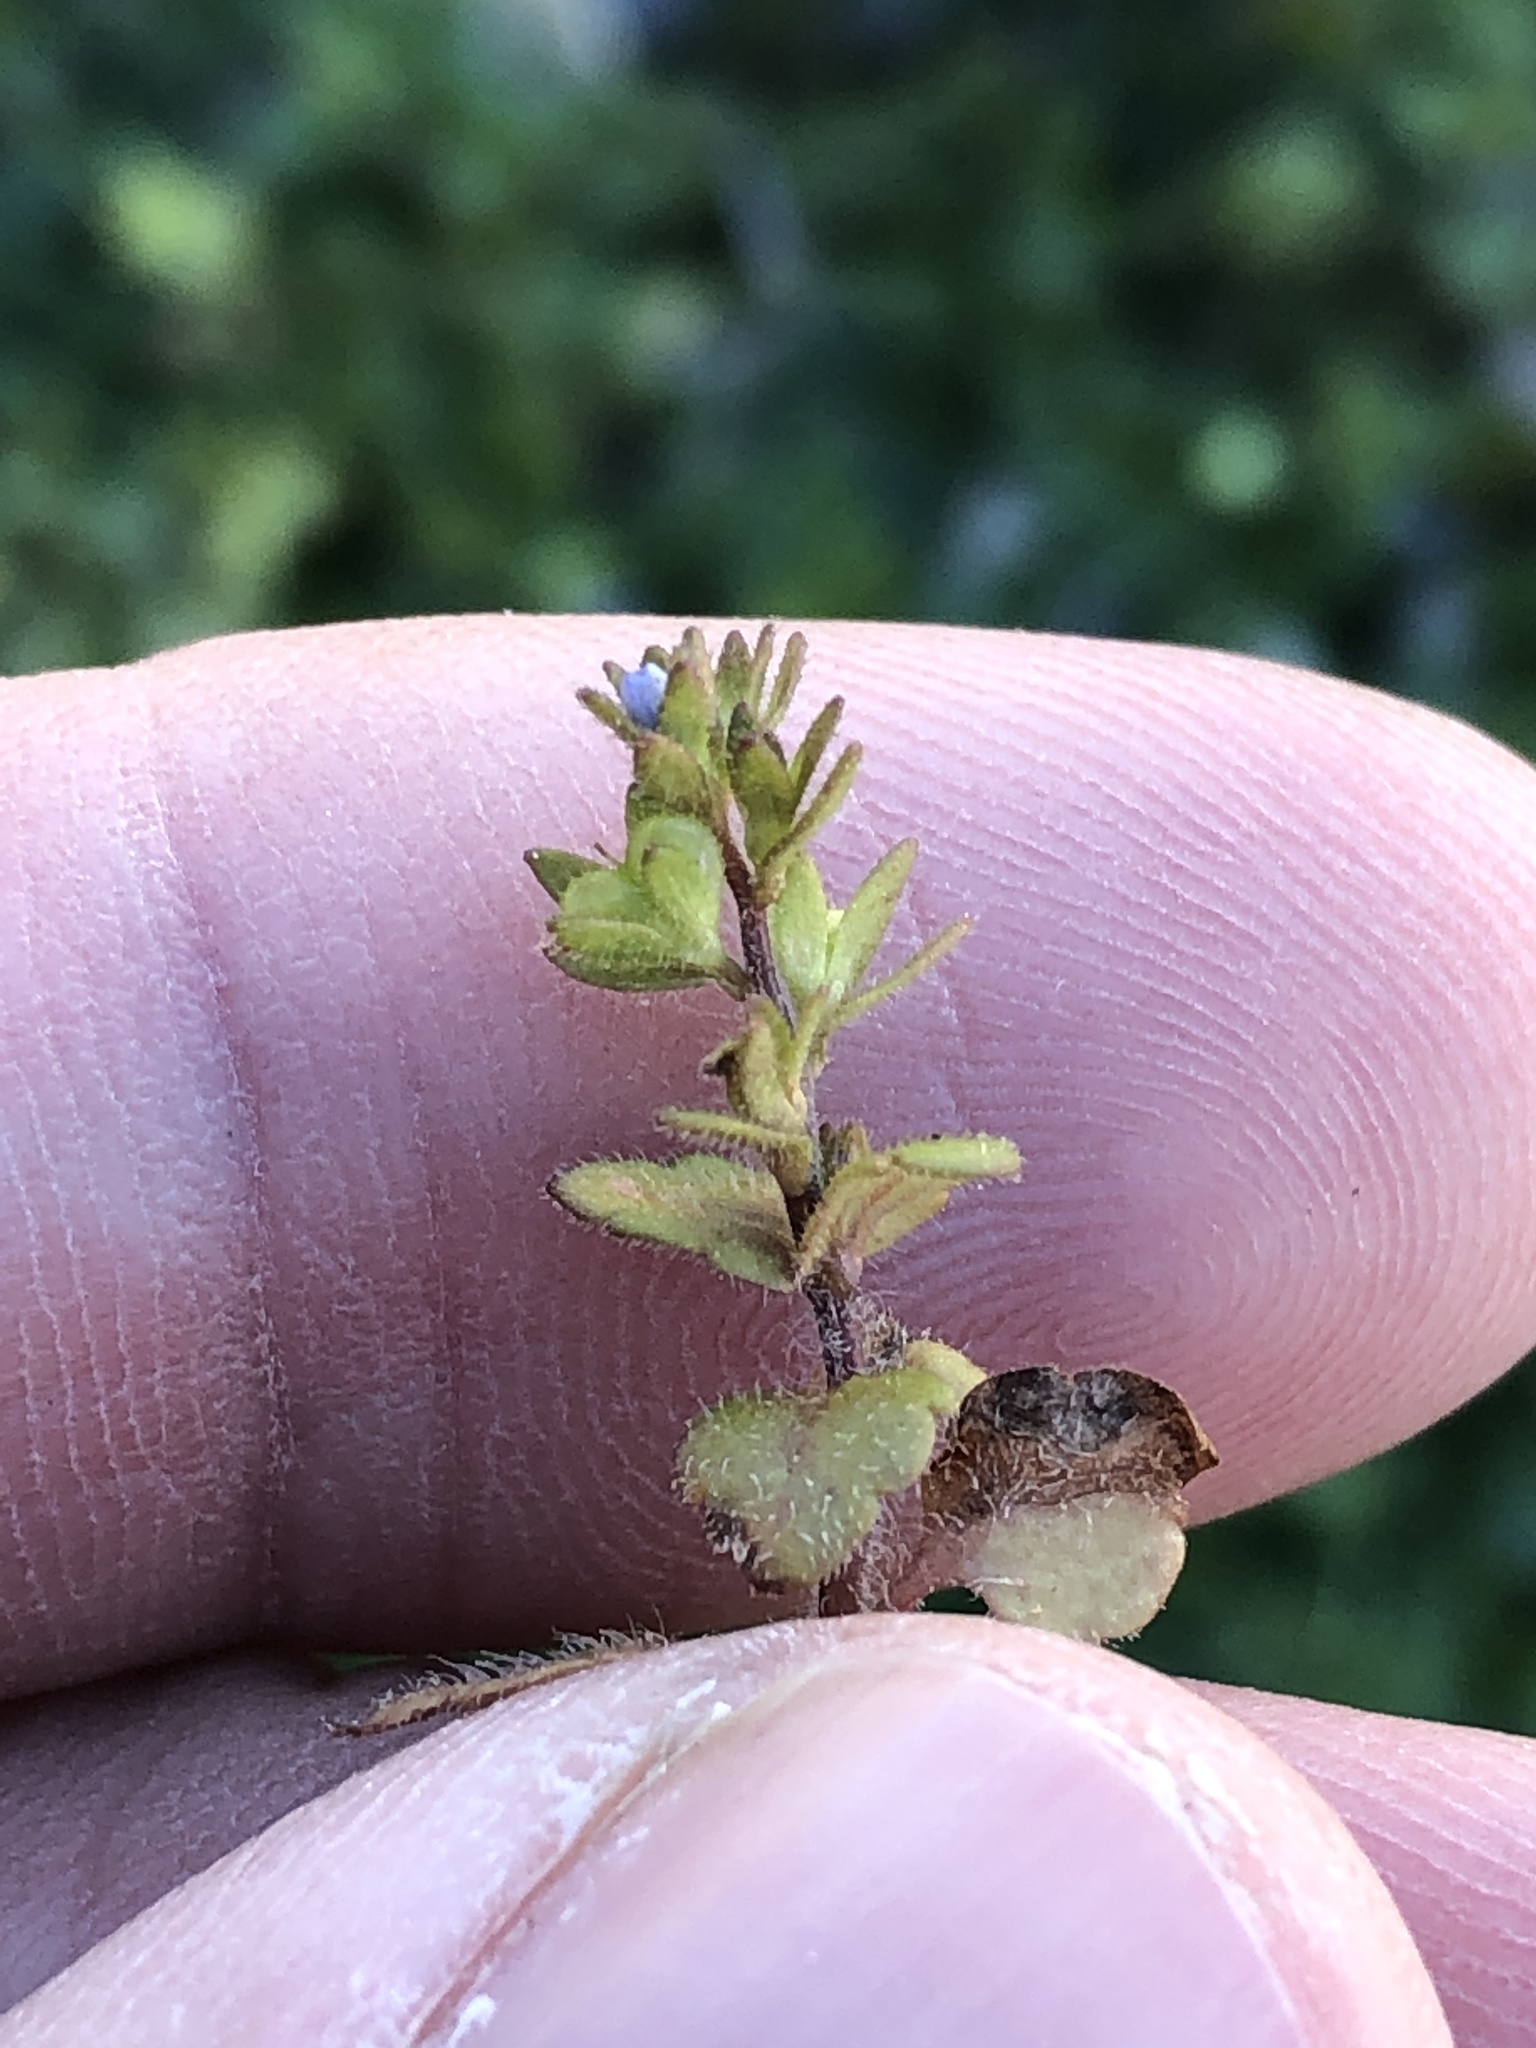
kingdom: Plantae
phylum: Tracheophyta
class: Magnoliopsida
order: Lamiales
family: Plantaginaceae
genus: Veronica
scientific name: Veronica arvensis
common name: Corn speedwell
